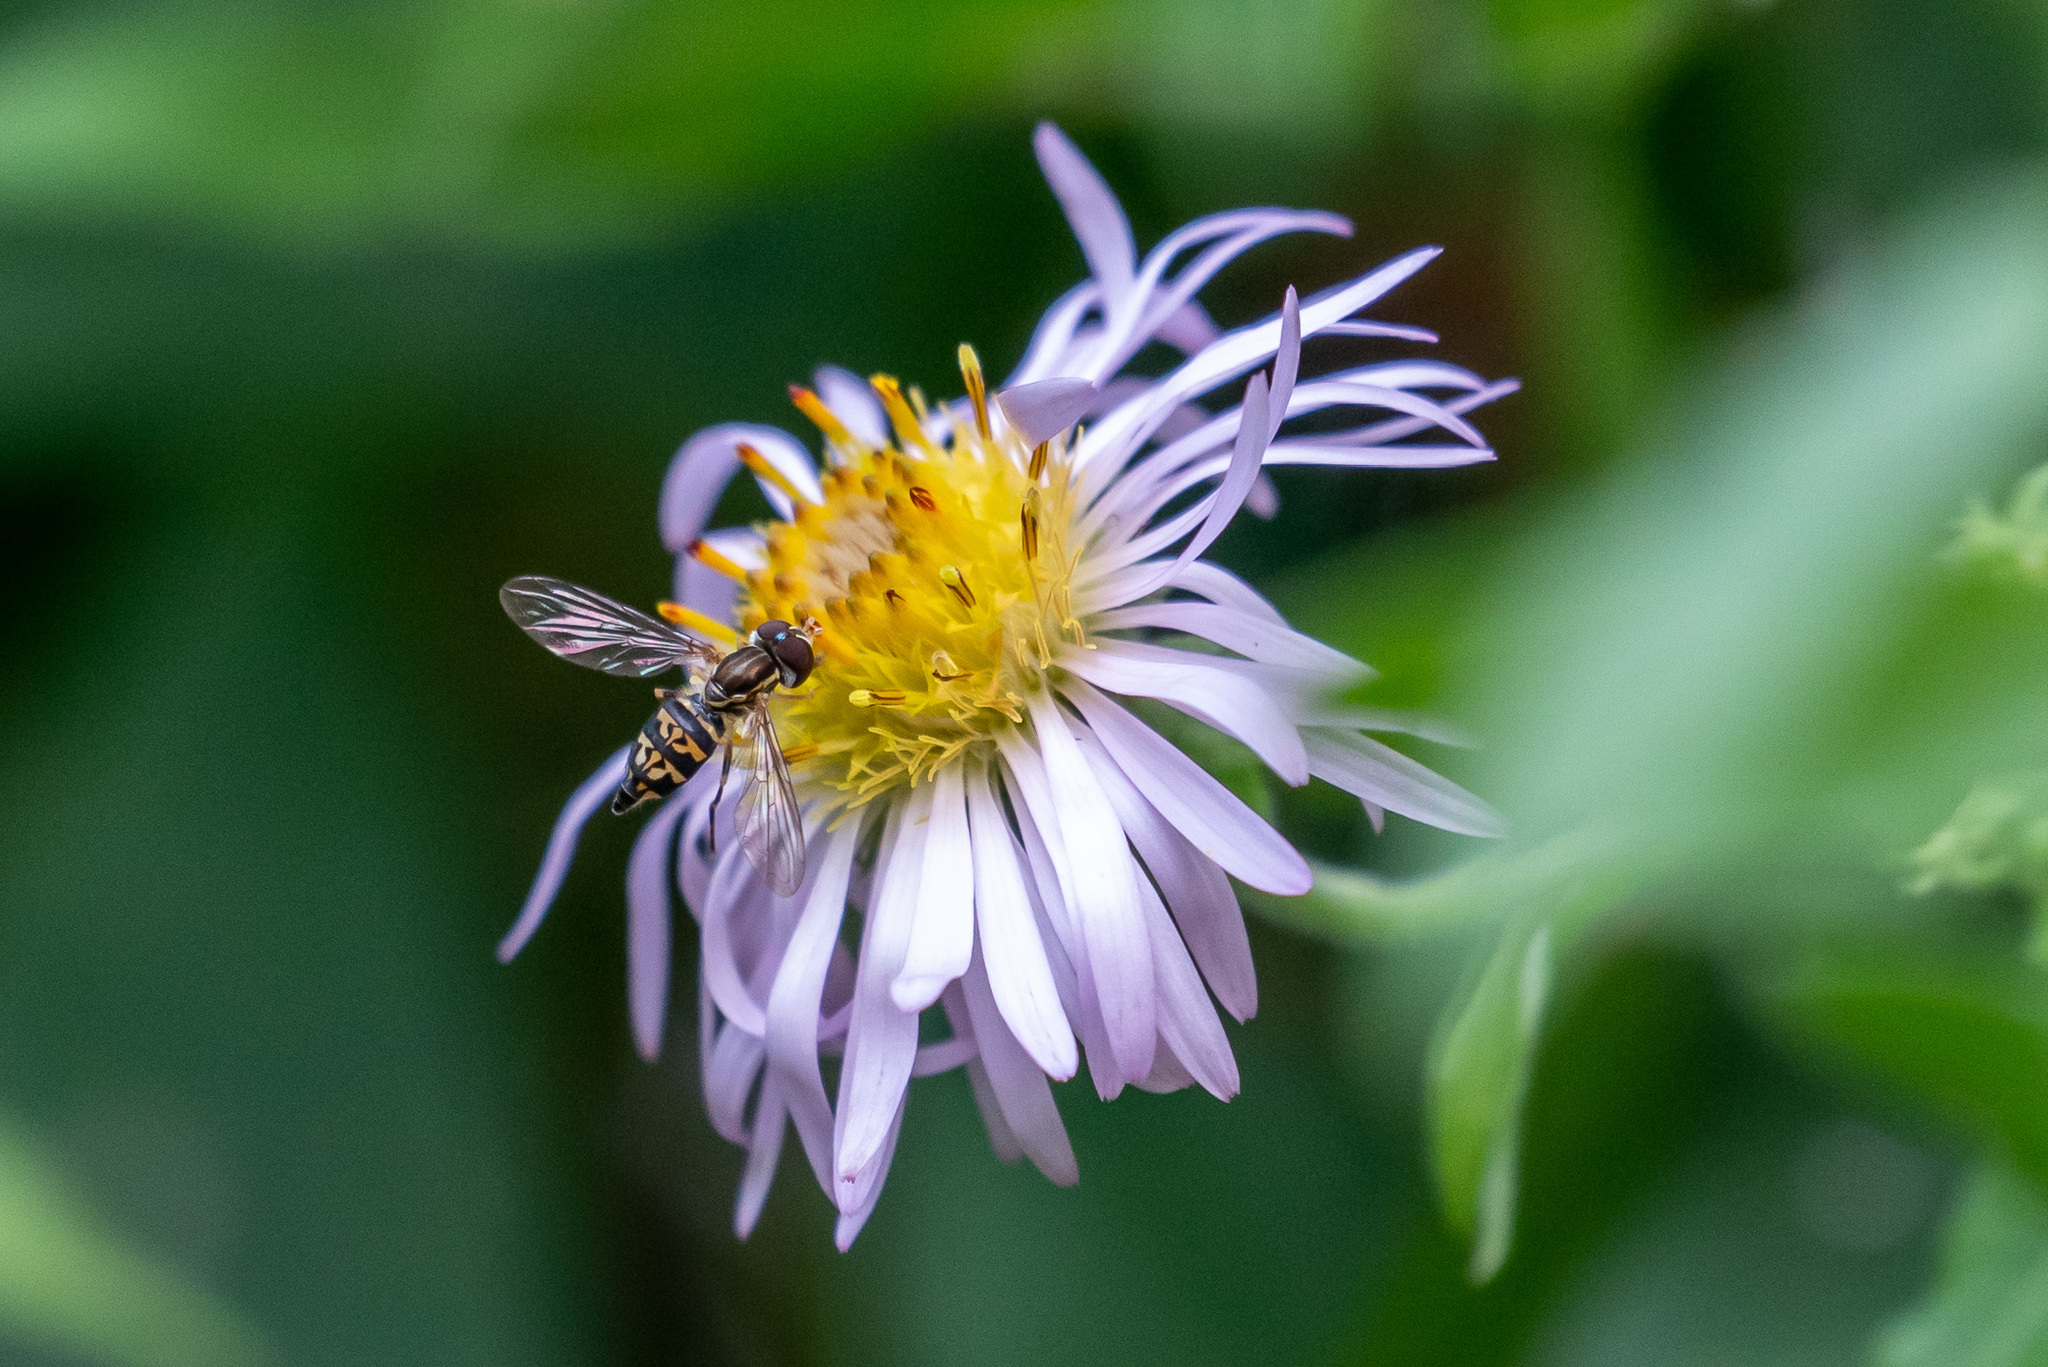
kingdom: Animalia
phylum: Arthropoda
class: Insecta
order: Diptera
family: Syrphidae
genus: Toxomerus
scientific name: Toxomerus geminatus
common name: Eastern calligrapher
